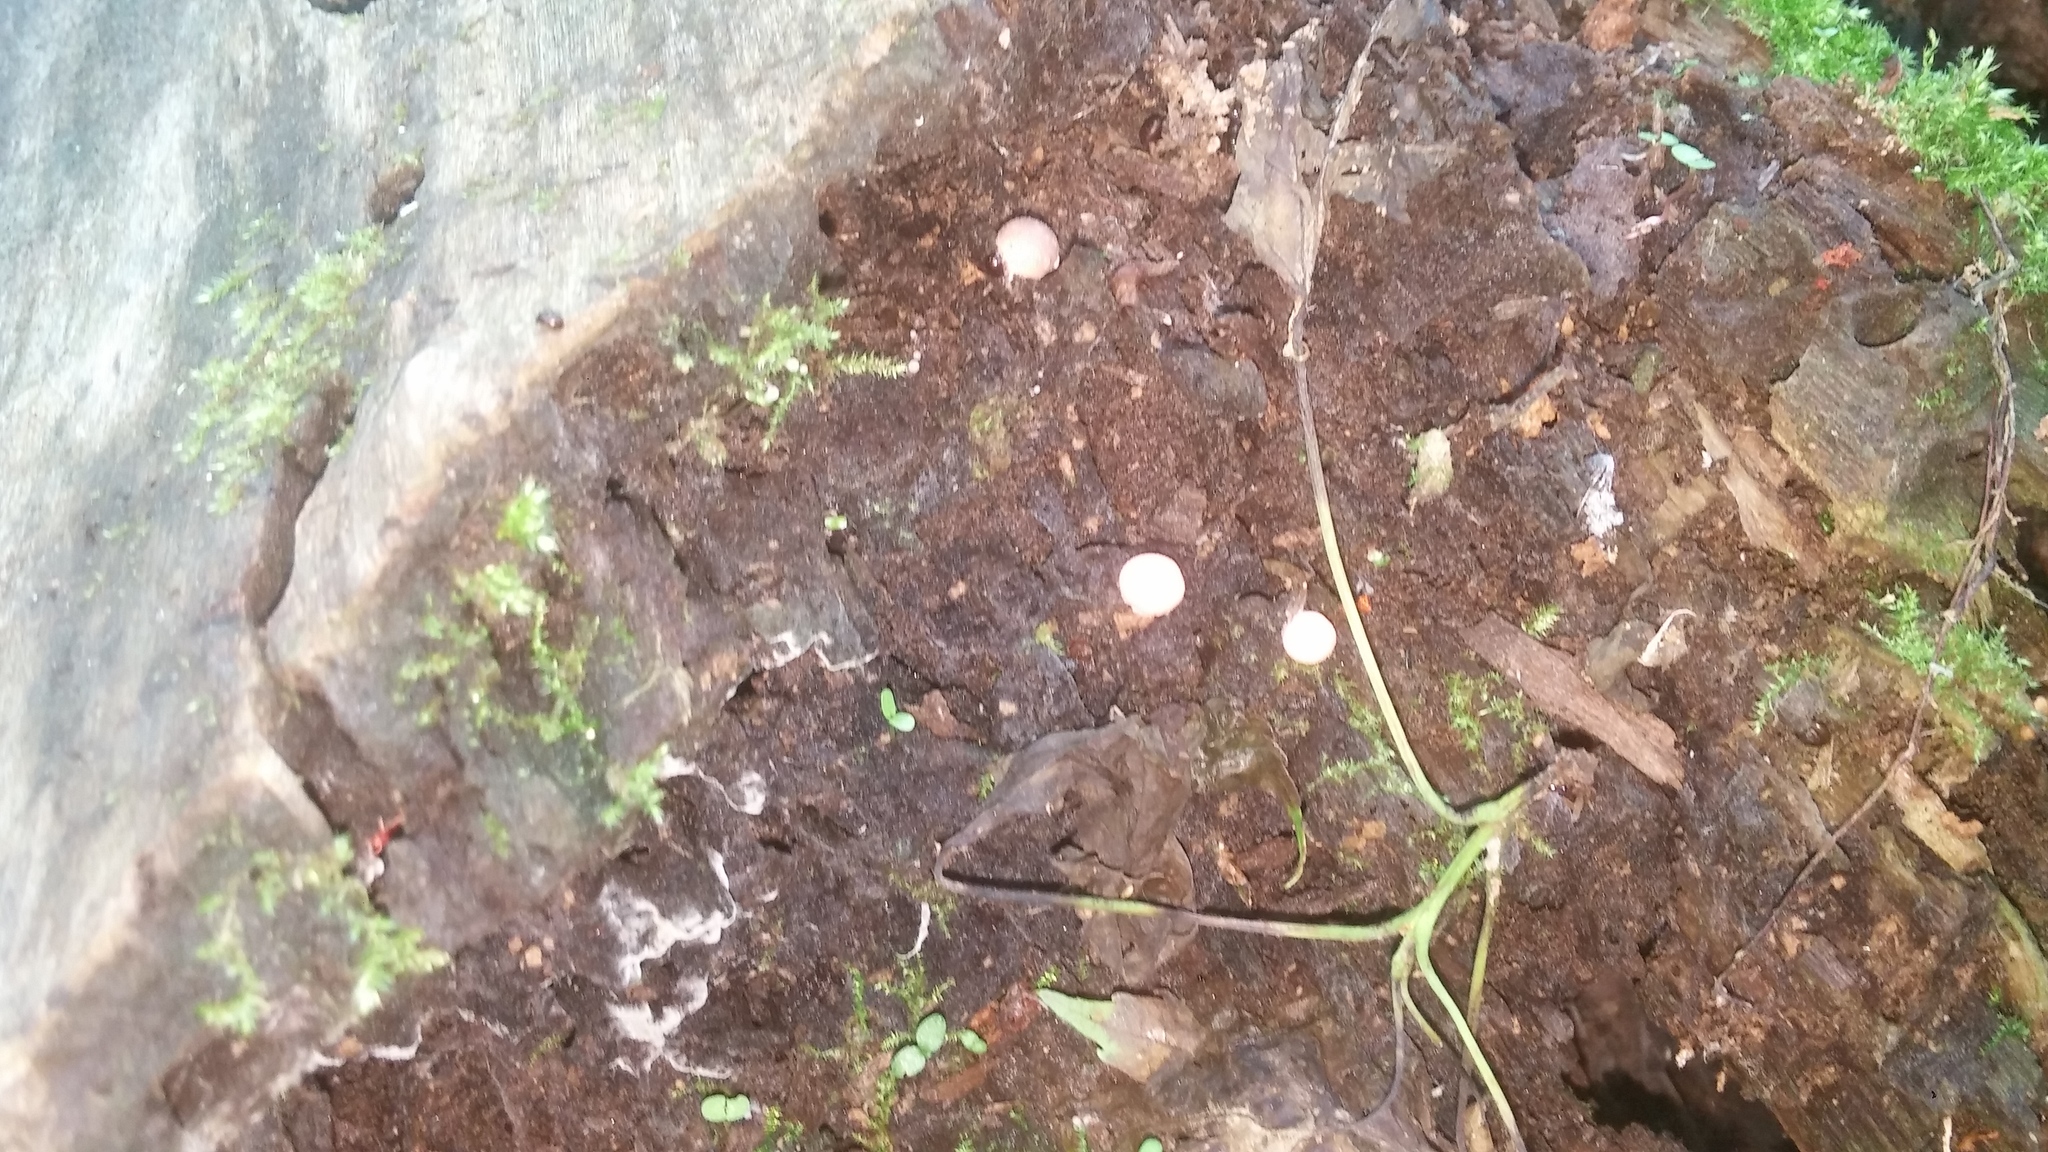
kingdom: Protozoa
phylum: Mycetozoa
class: Myxomycetes
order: Cribrariales
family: Tubiferaceae
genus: Lycogala
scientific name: Lycogala epidendrum
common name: Wolf's milk
